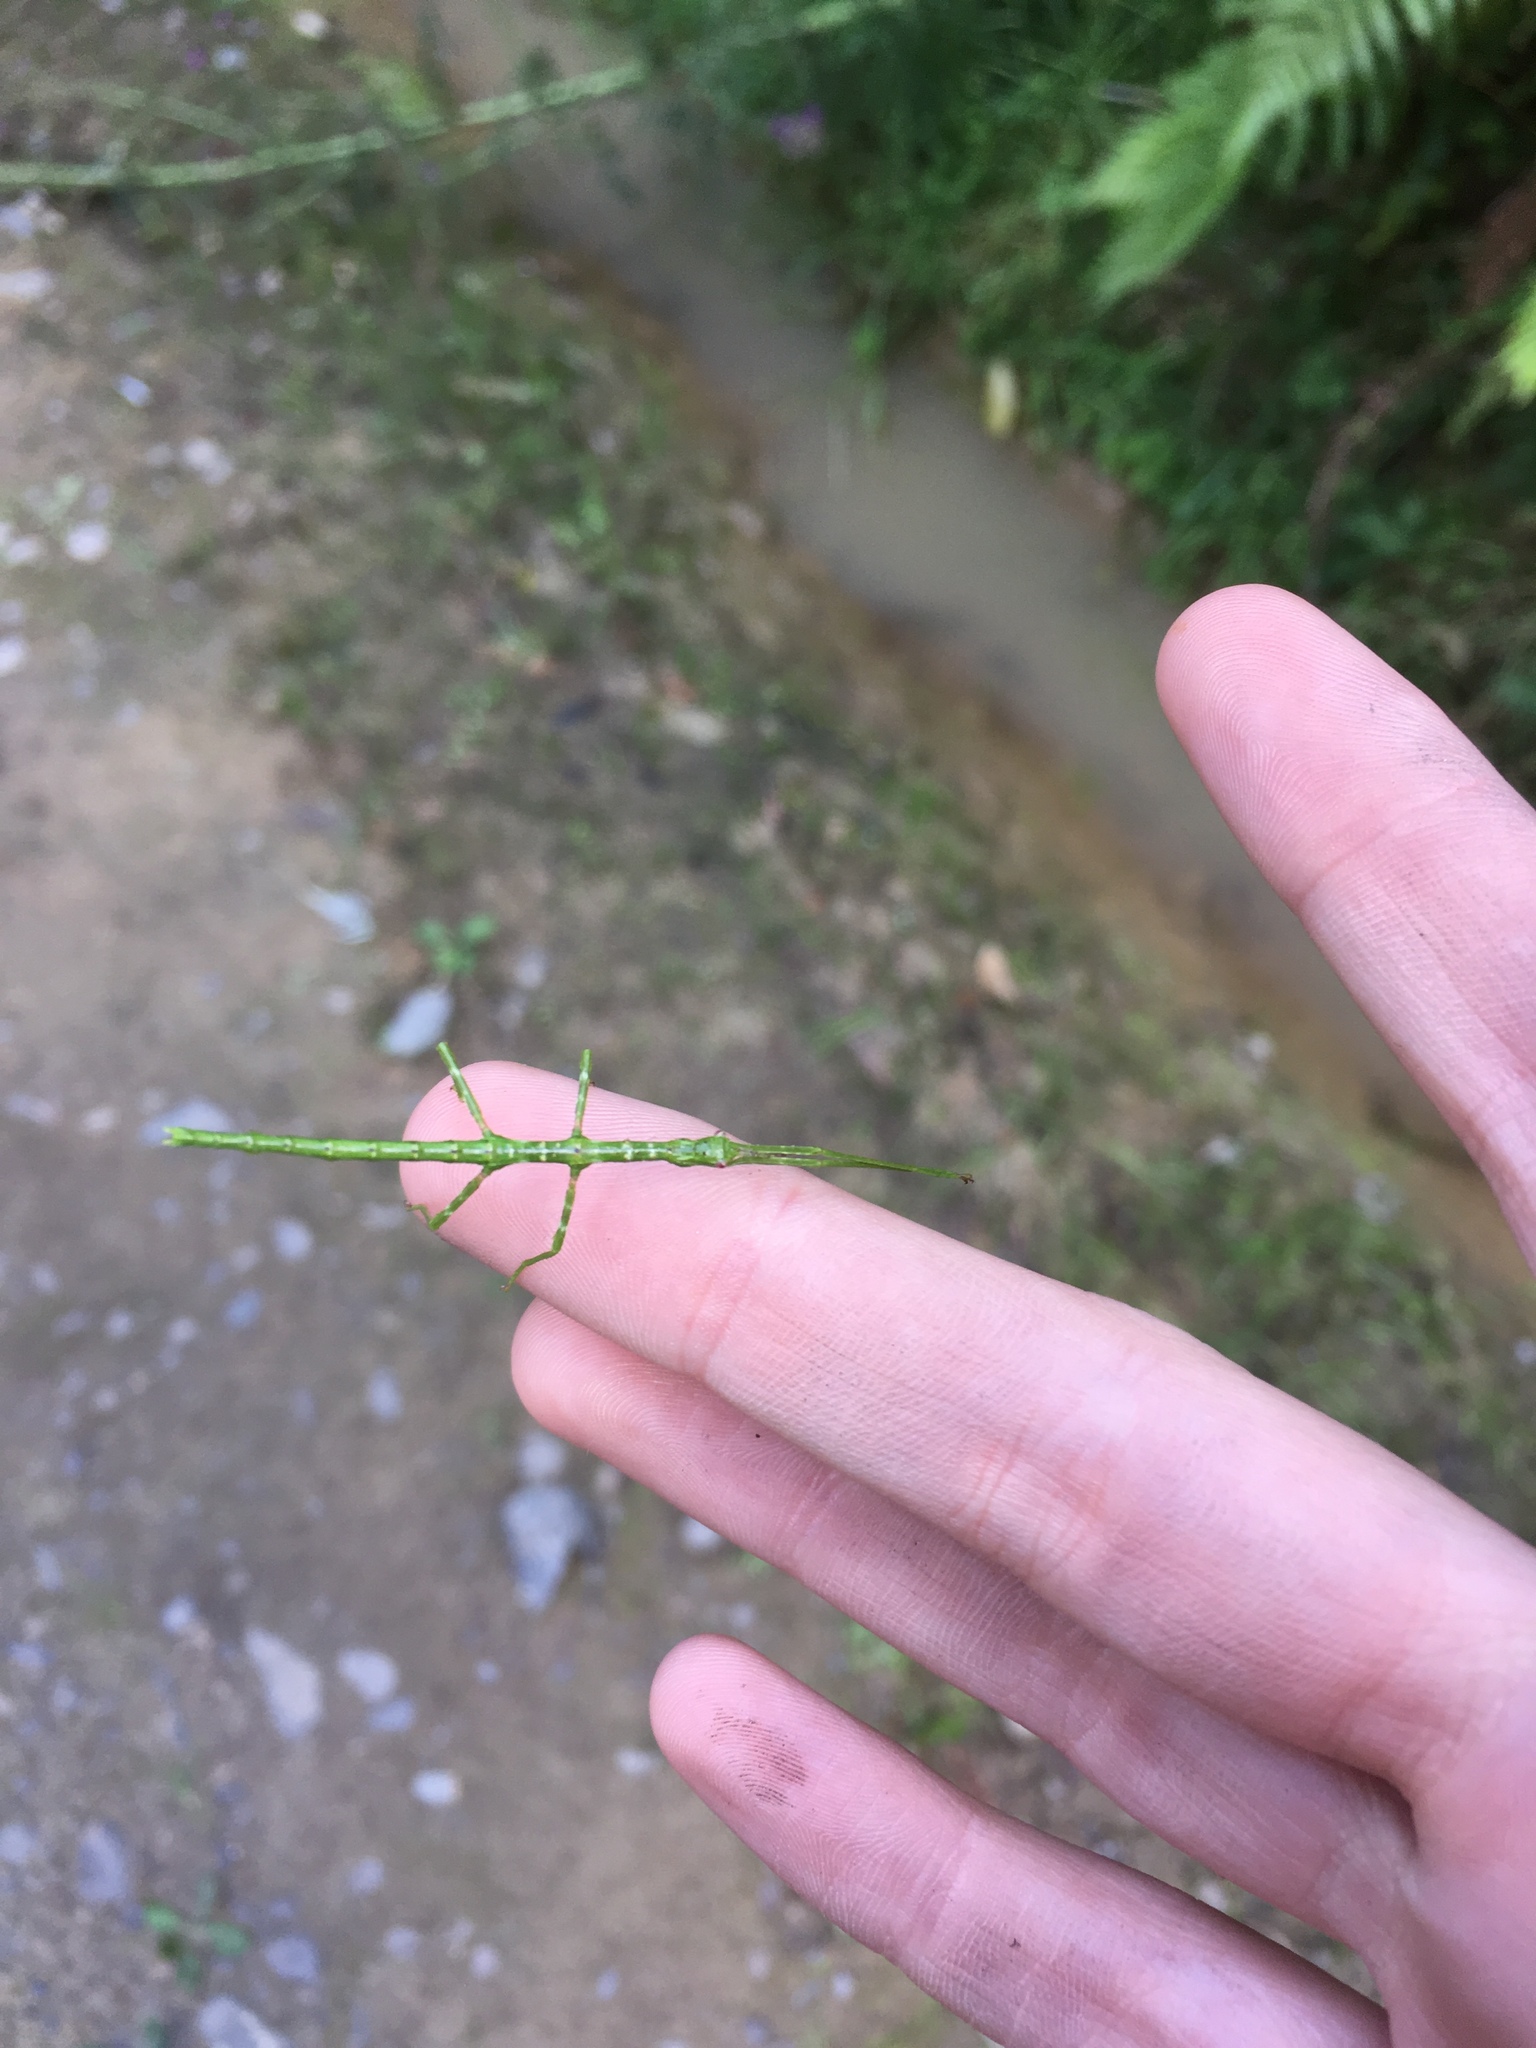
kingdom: Animalia
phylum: Arthropoda
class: Insecta
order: Phasmida
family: Phasmatidae
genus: Acanthoxyla
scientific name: Acanthoxyla geisovii
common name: Prickly stick insect
